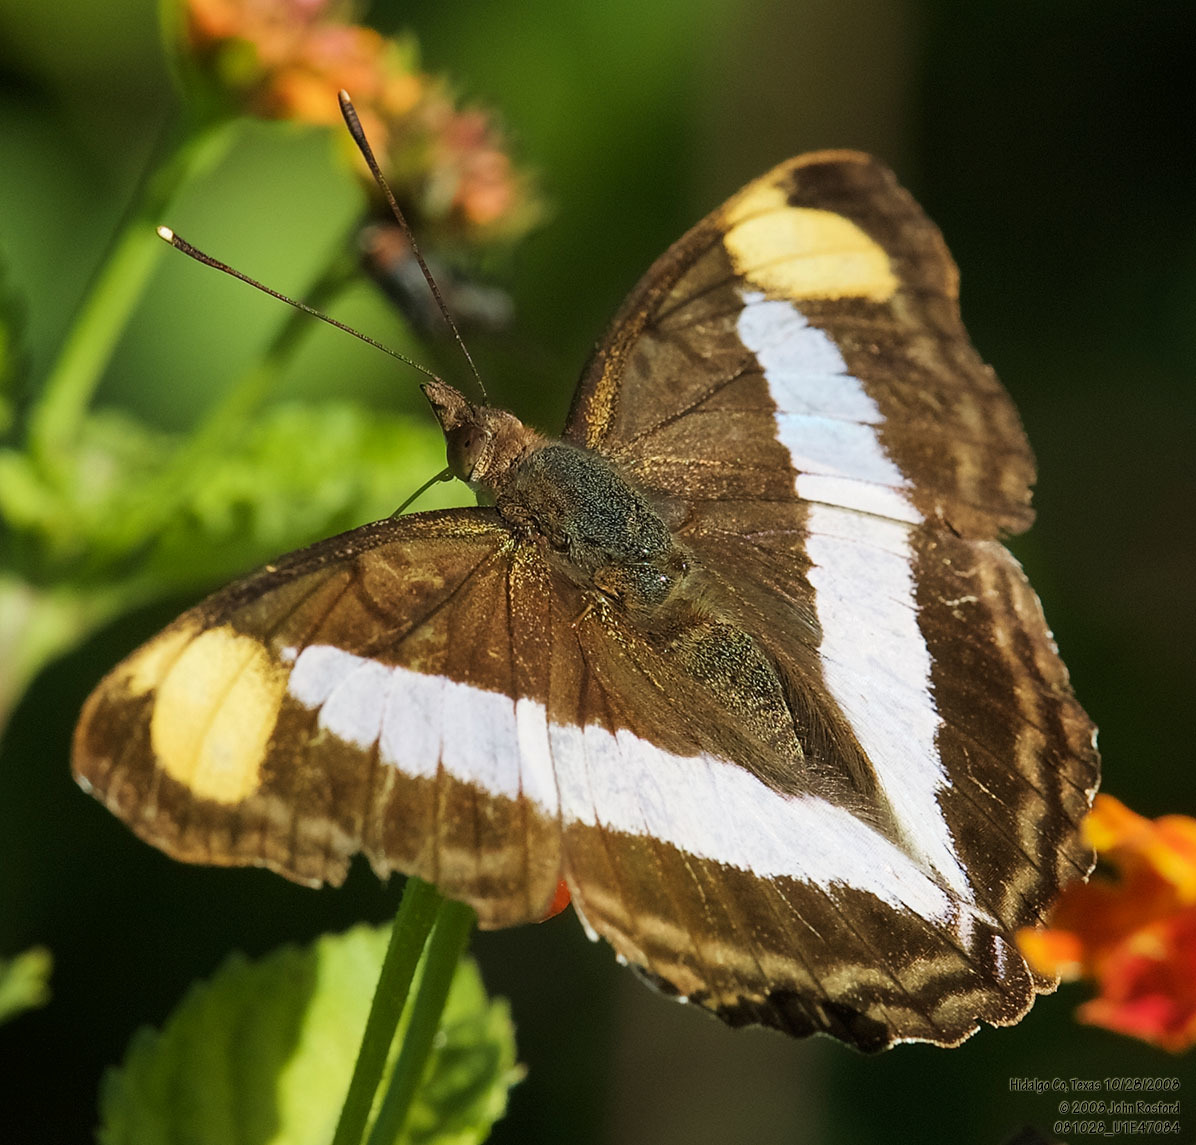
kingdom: Animalia
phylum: Arthropoda
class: Insecta
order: Lepidoptera
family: Nymphalidae
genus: Doxocopa
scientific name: Doxocopa pavon
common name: Pavon emperor
